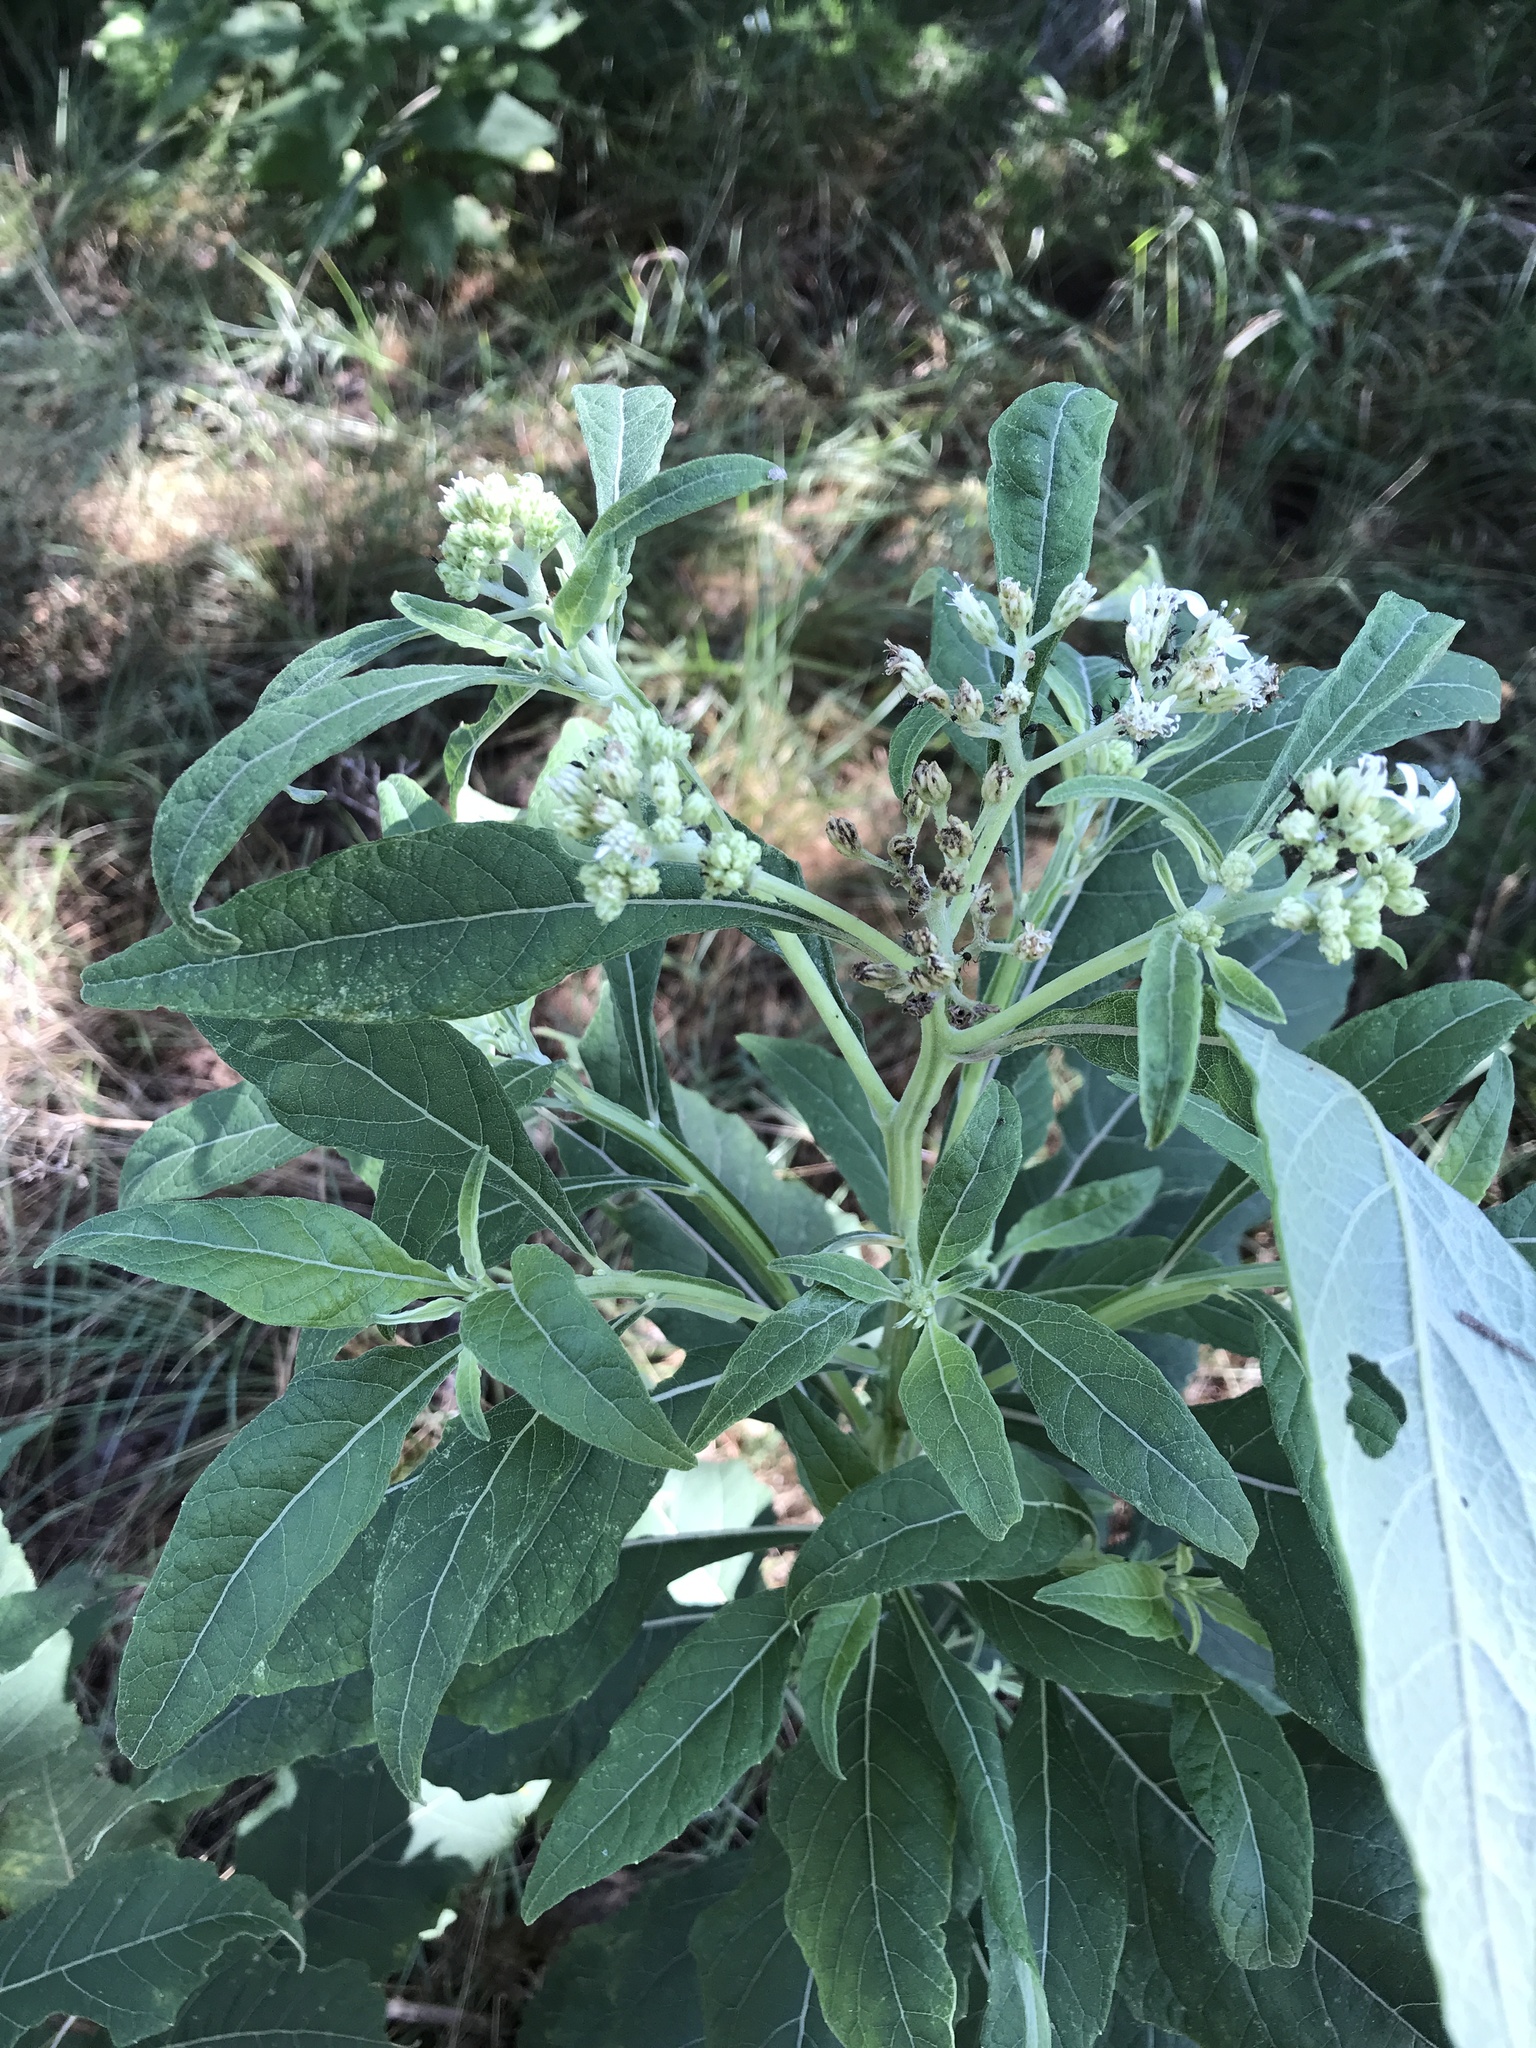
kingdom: Plantae
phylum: Tracheophyta
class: Magnoliopsida
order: Asterales
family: Asteraceae
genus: Verbesina
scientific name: Verbesina virginica
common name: Frostweed
